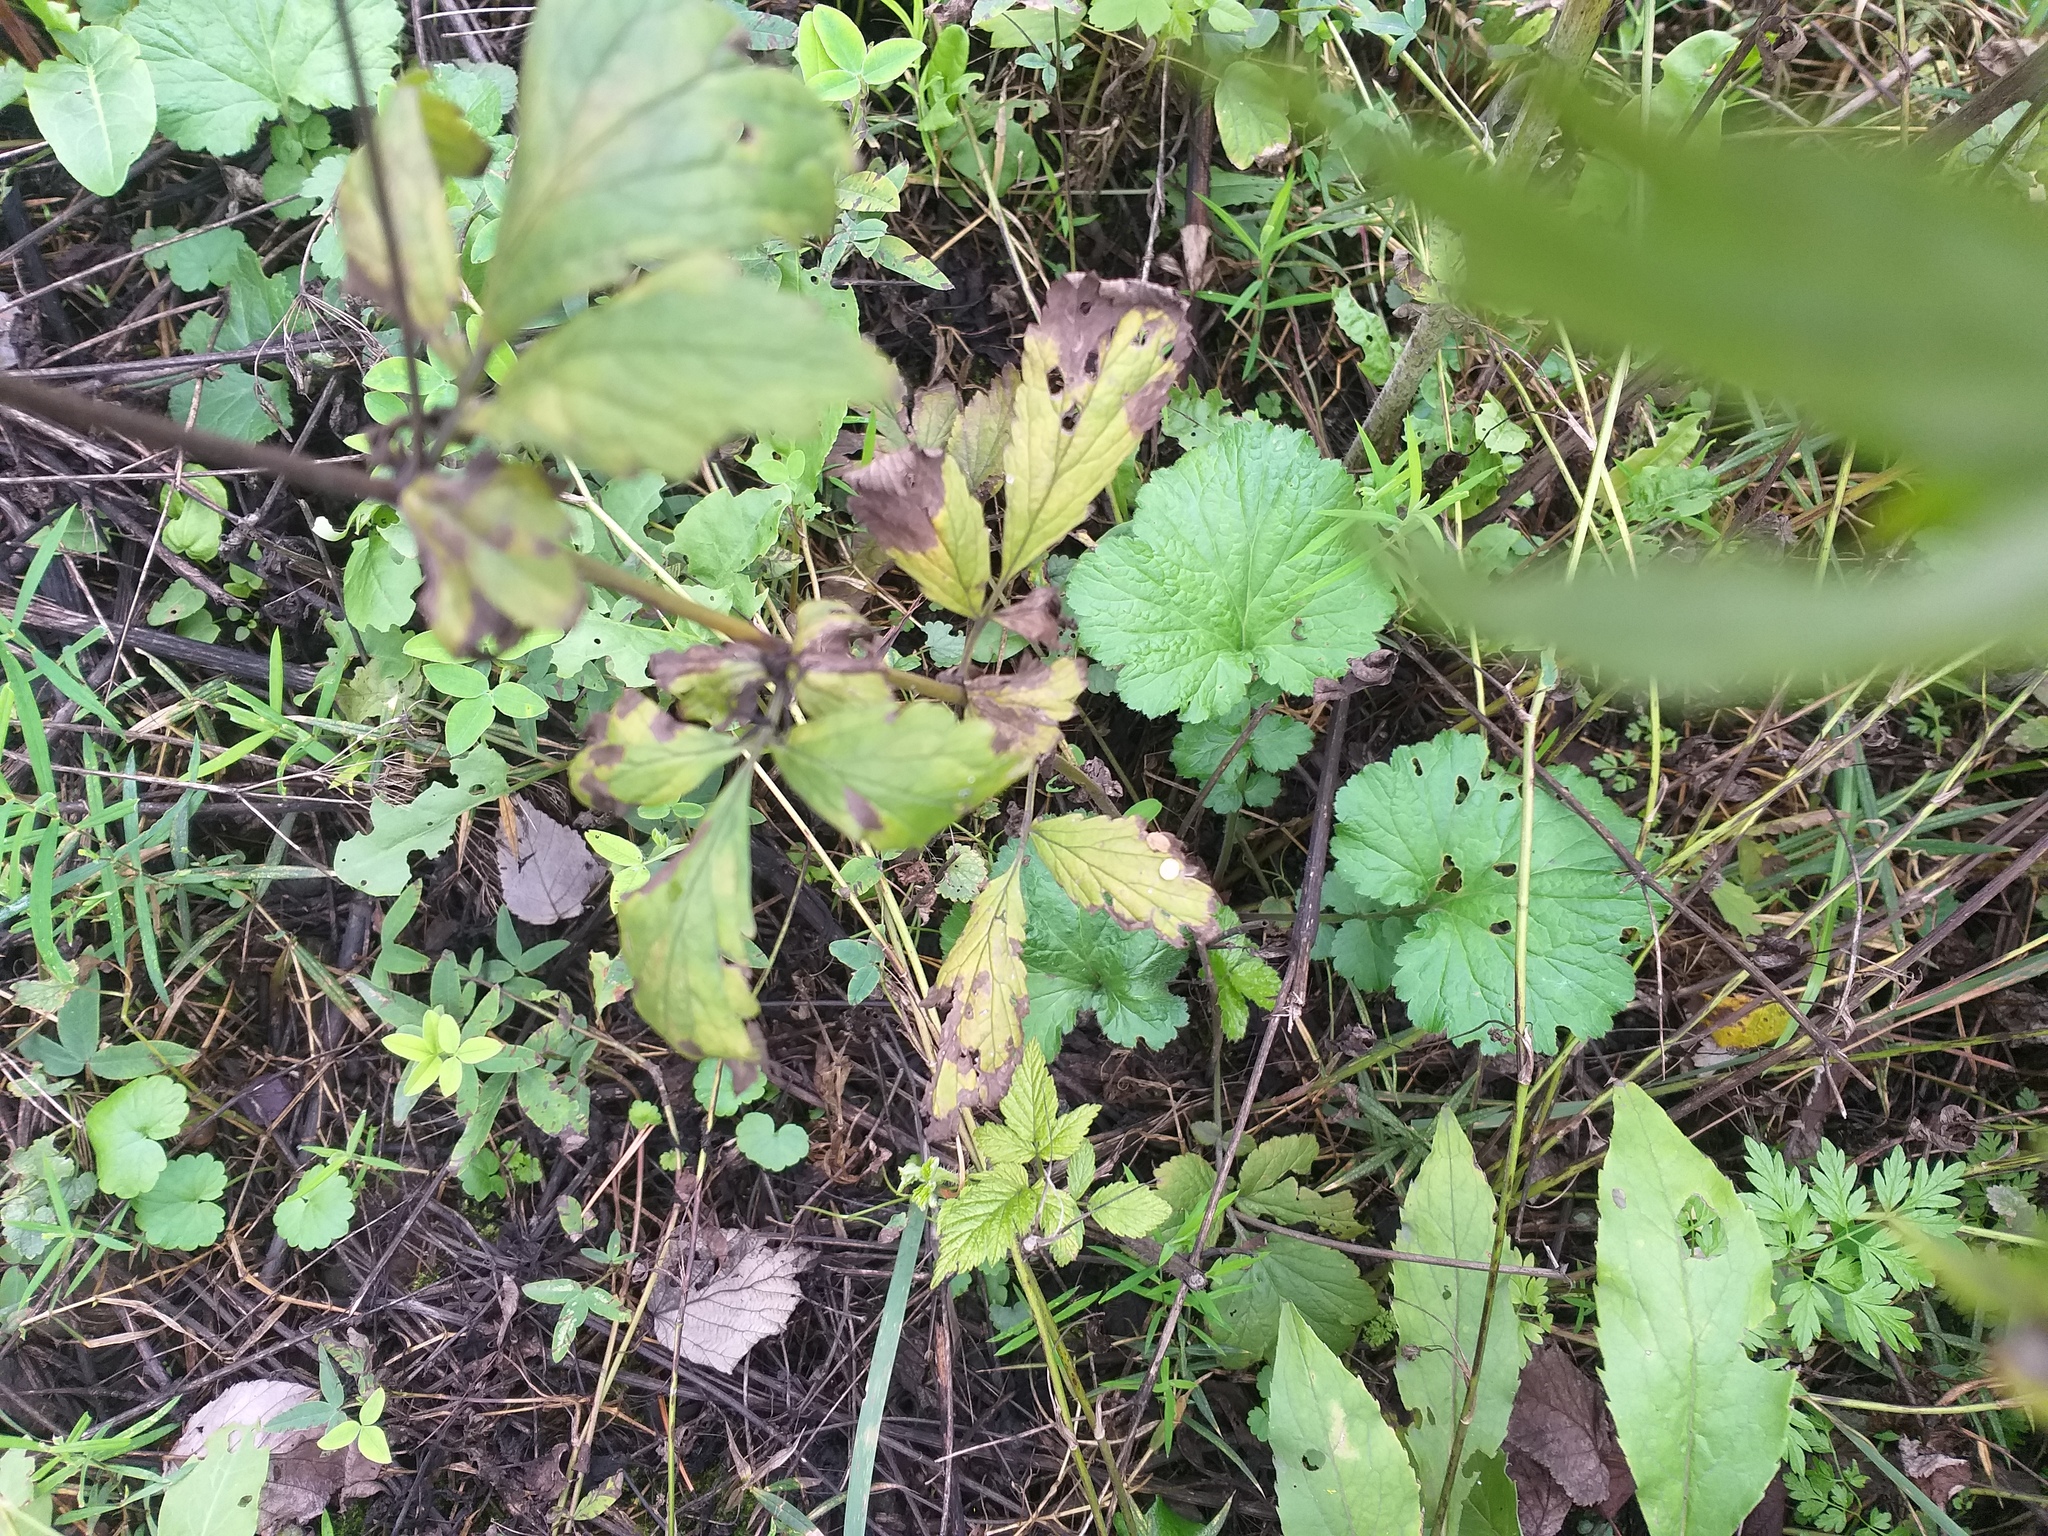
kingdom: Plantae
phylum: Tracheophyta
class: Magnoliopsida
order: Rosales
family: Rosaceae
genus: Geum
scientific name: Geum urbanum
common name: Wood avens
